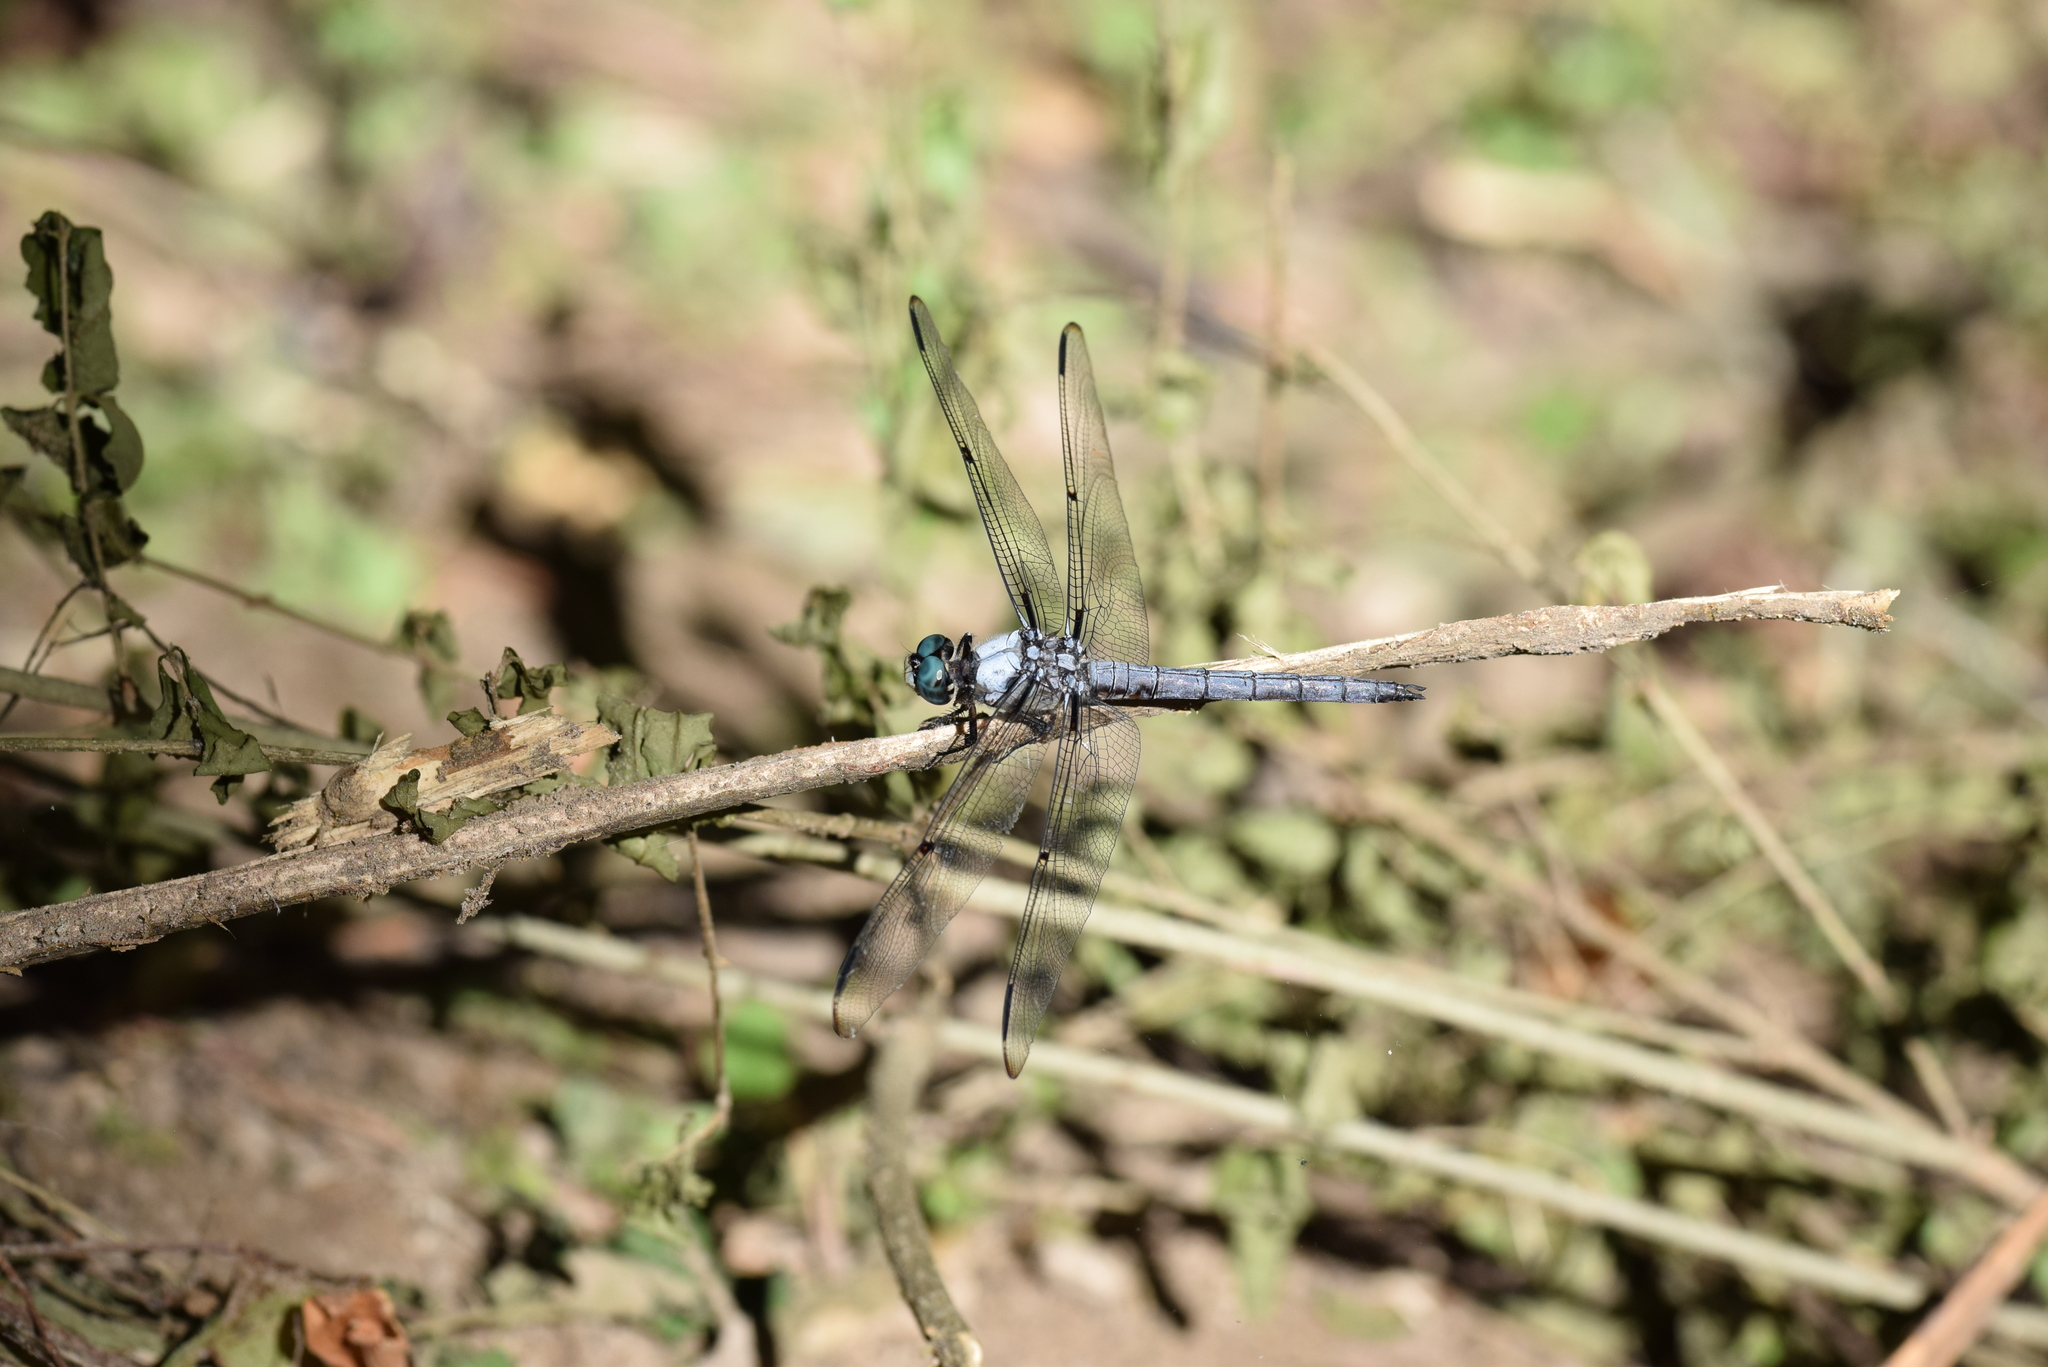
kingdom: Animalia
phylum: Arthropoda
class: Insecta
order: Odonata
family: Libellulidae
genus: Libellula
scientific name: Libellula vibrans
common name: Great blue skimmer
